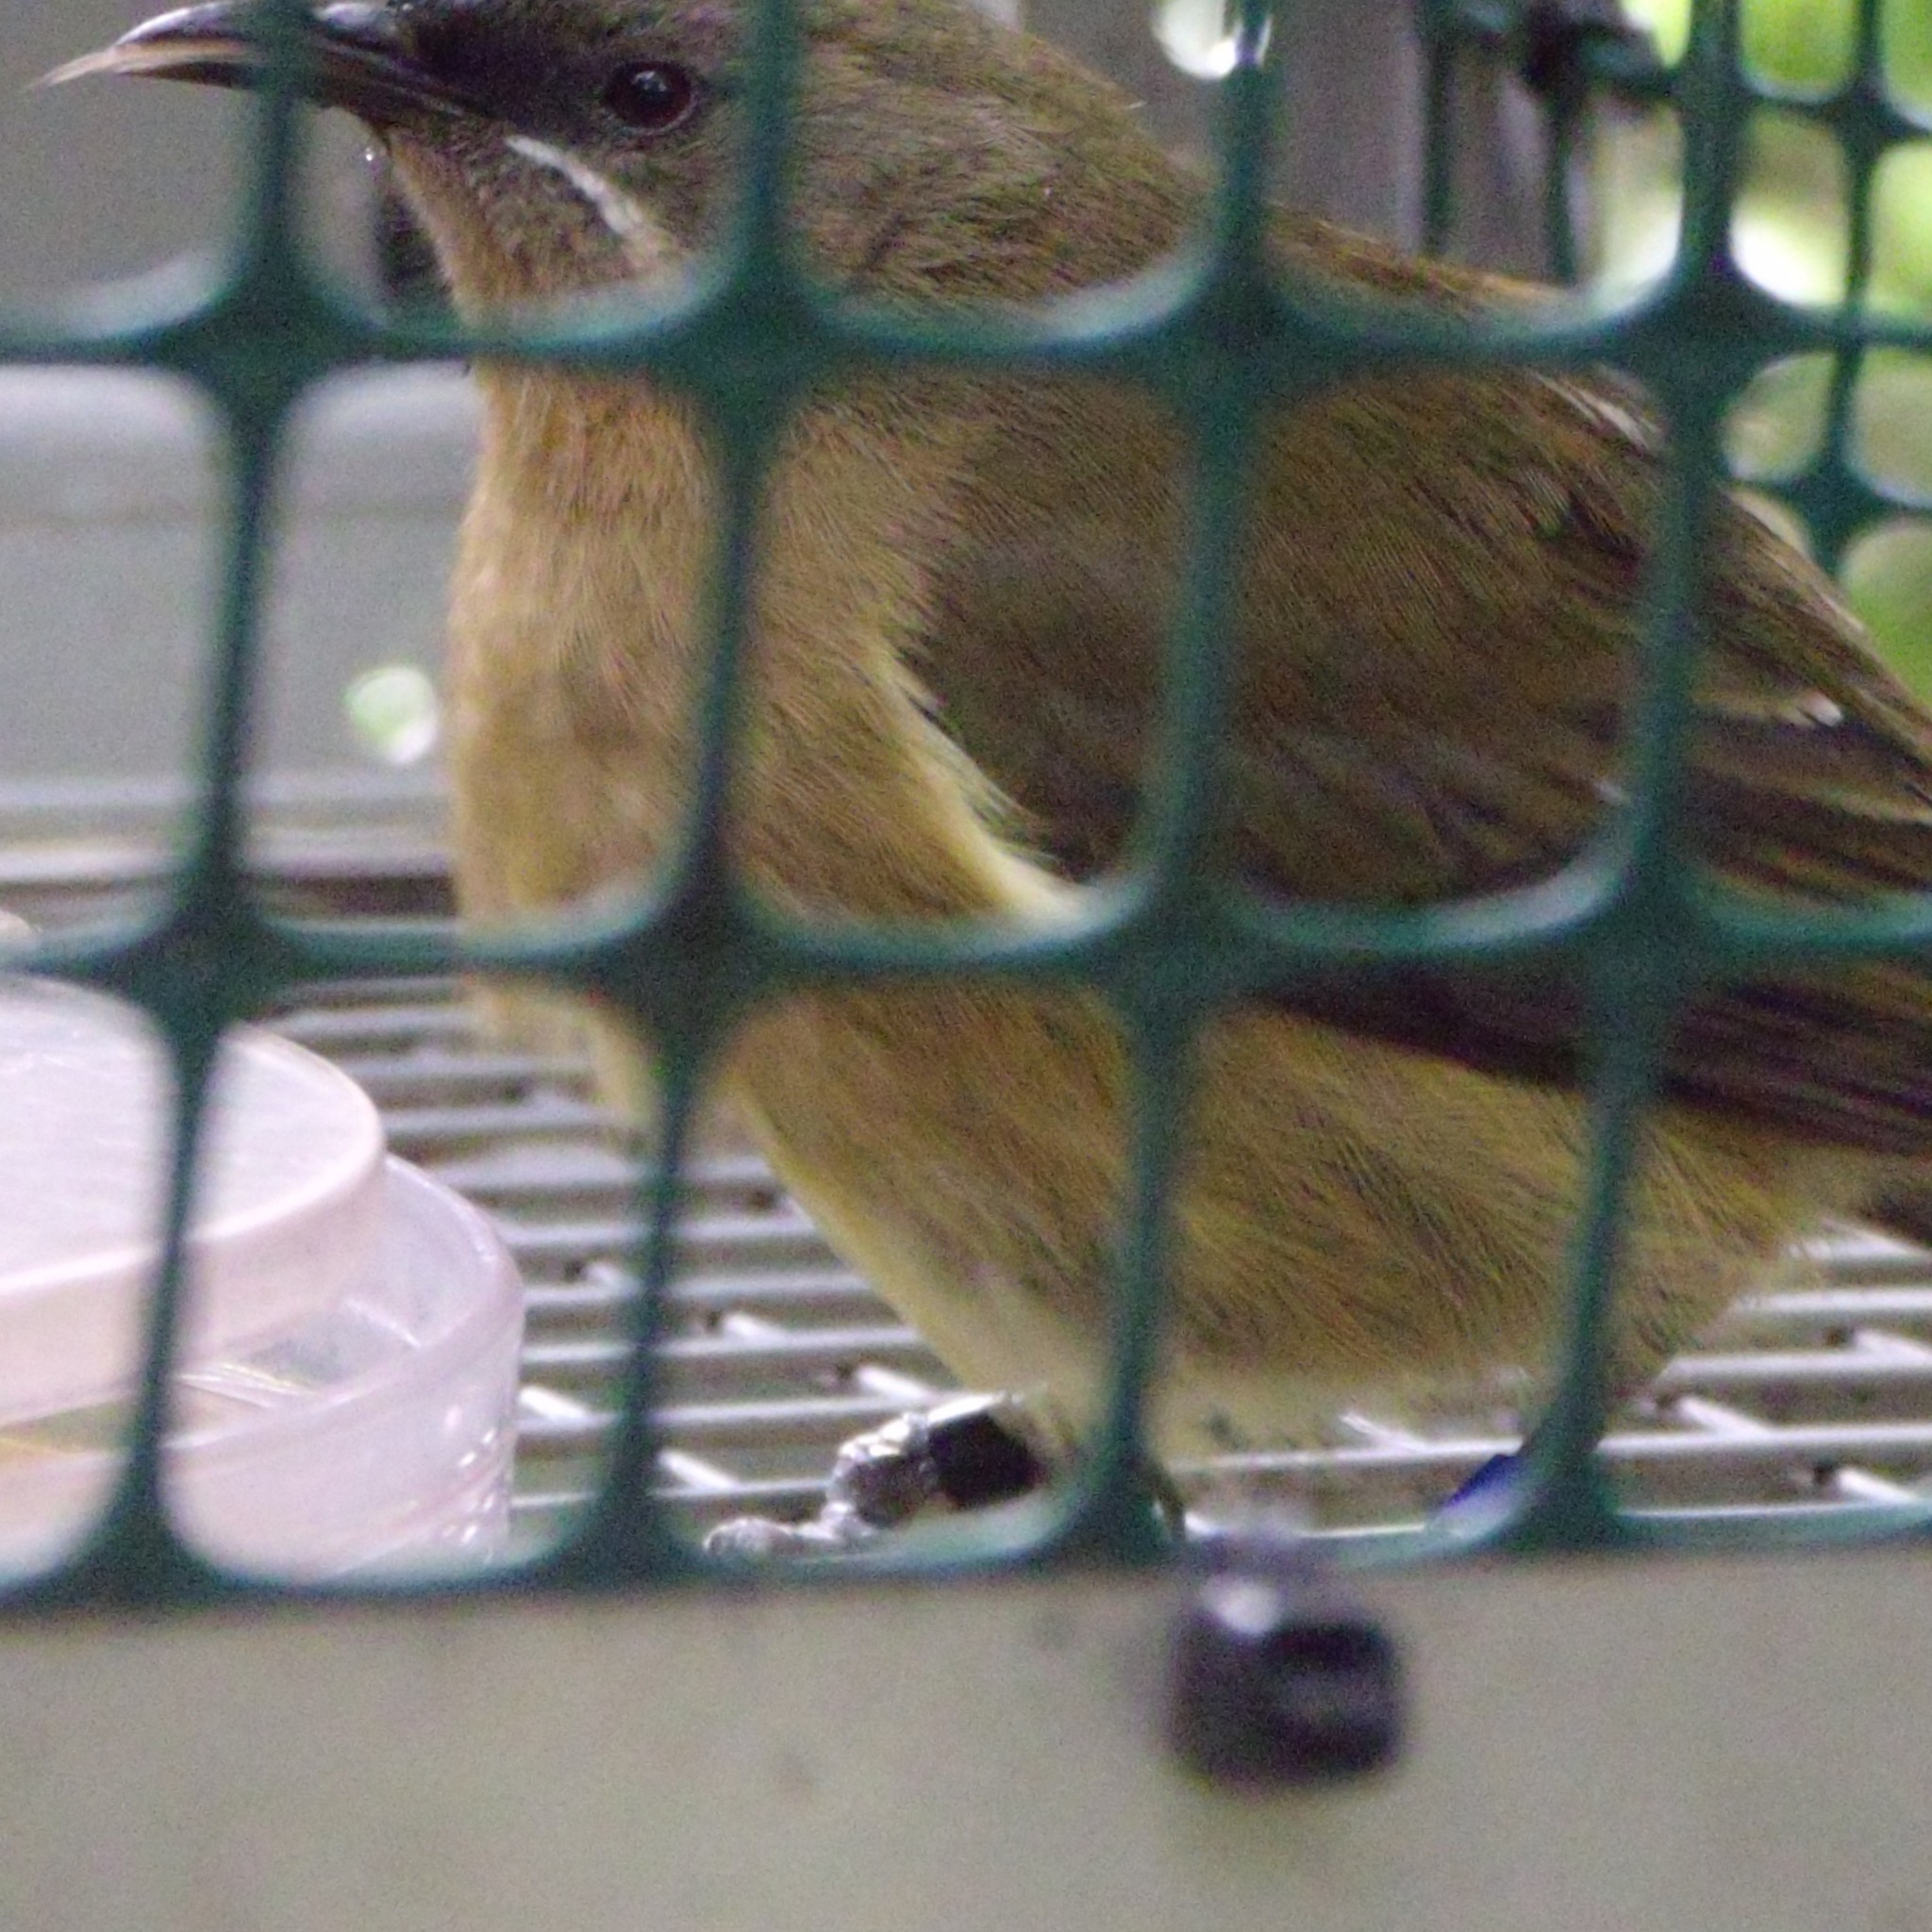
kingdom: Animalia
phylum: Chordata
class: Aves
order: Passeriformes
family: Meliphagidae
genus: Anthornis
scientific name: Anthornis melanura
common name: New zealand bellbird
